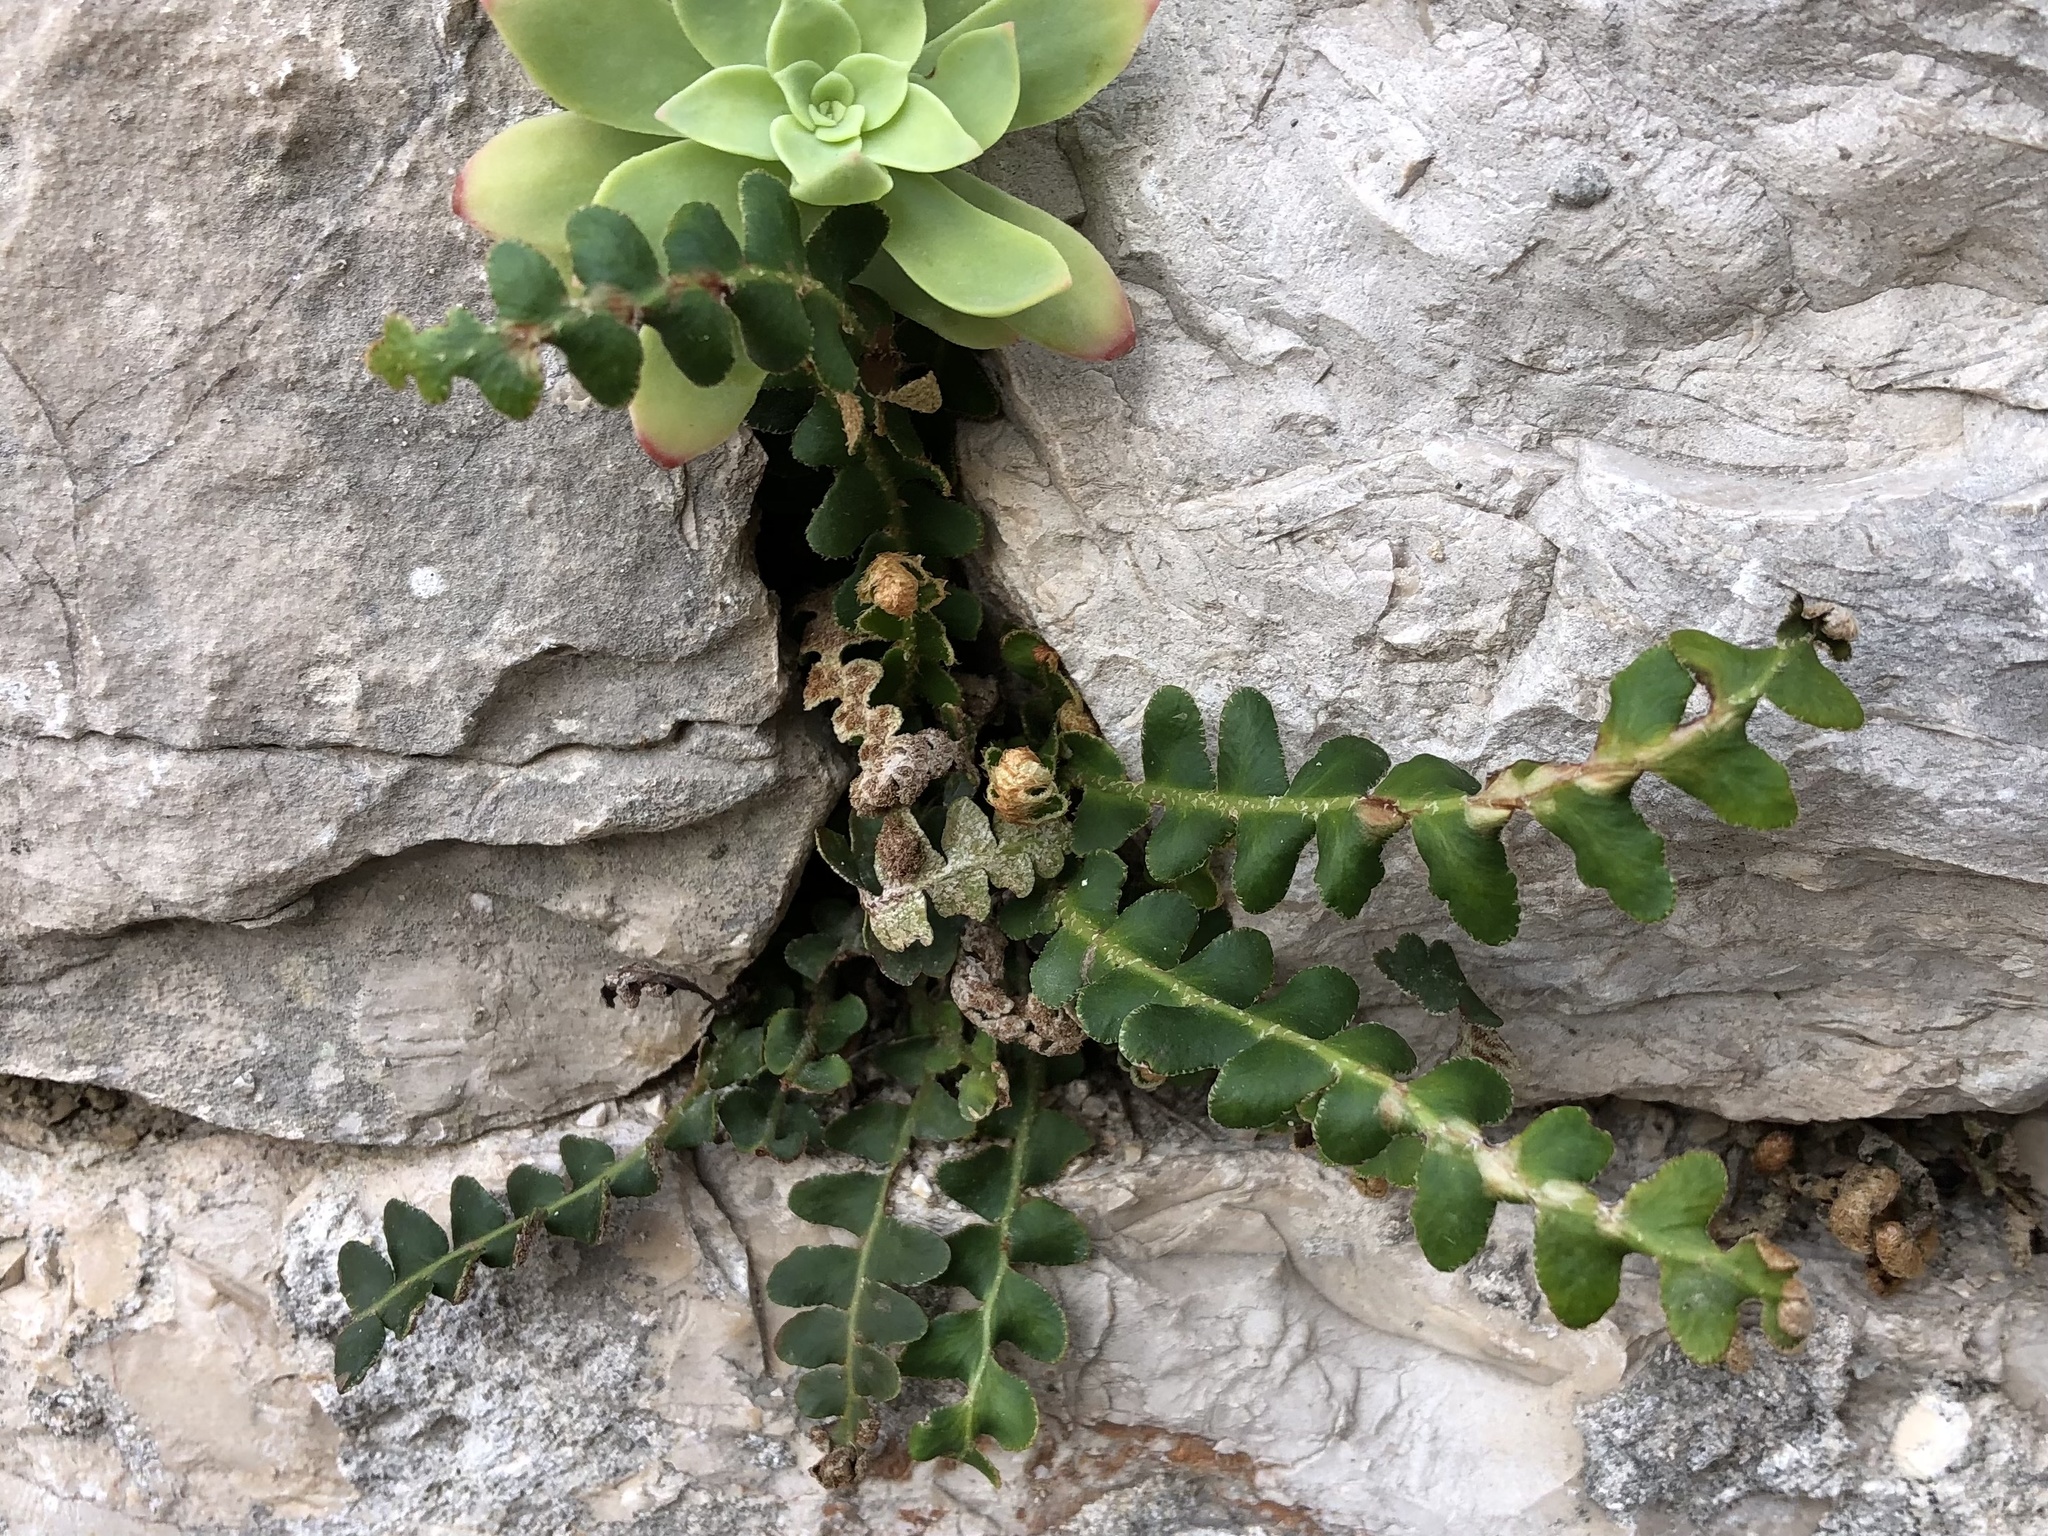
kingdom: Plantae
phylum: Tracheophyta
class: Polypodiopsida
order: Polypodiales
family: Aspleniaceae
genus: Asplenium
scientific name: Asplenium ceterach
